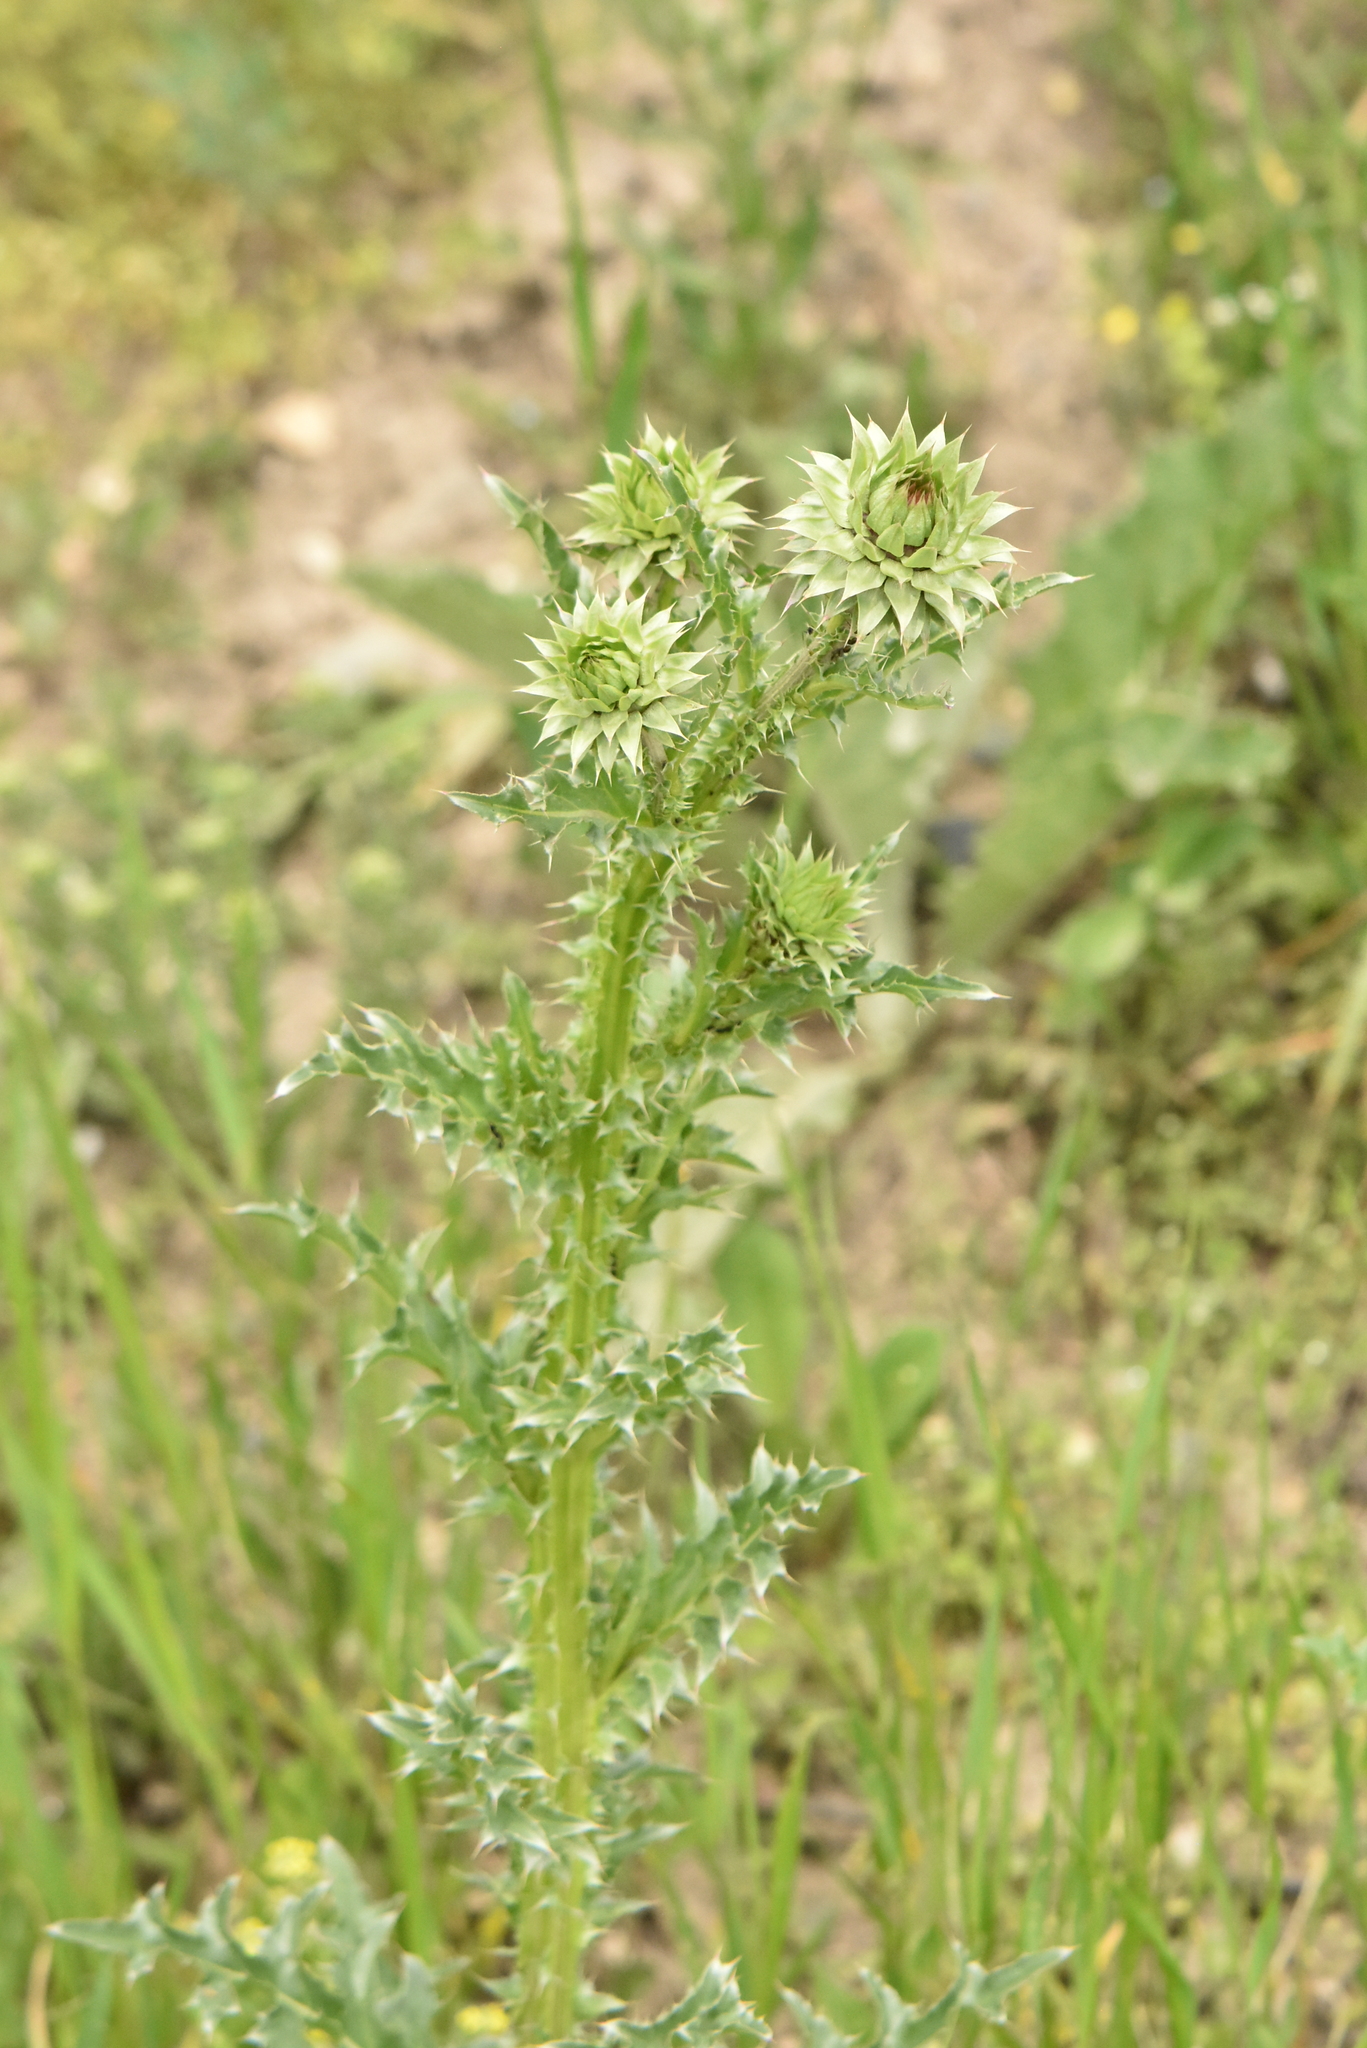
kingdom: Plantae
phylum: Tracheophyta
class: Magnoliopsida
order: Asterales
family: Asteraceae
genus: Carduus
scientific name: Carduus nutans
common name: Musk thistle
